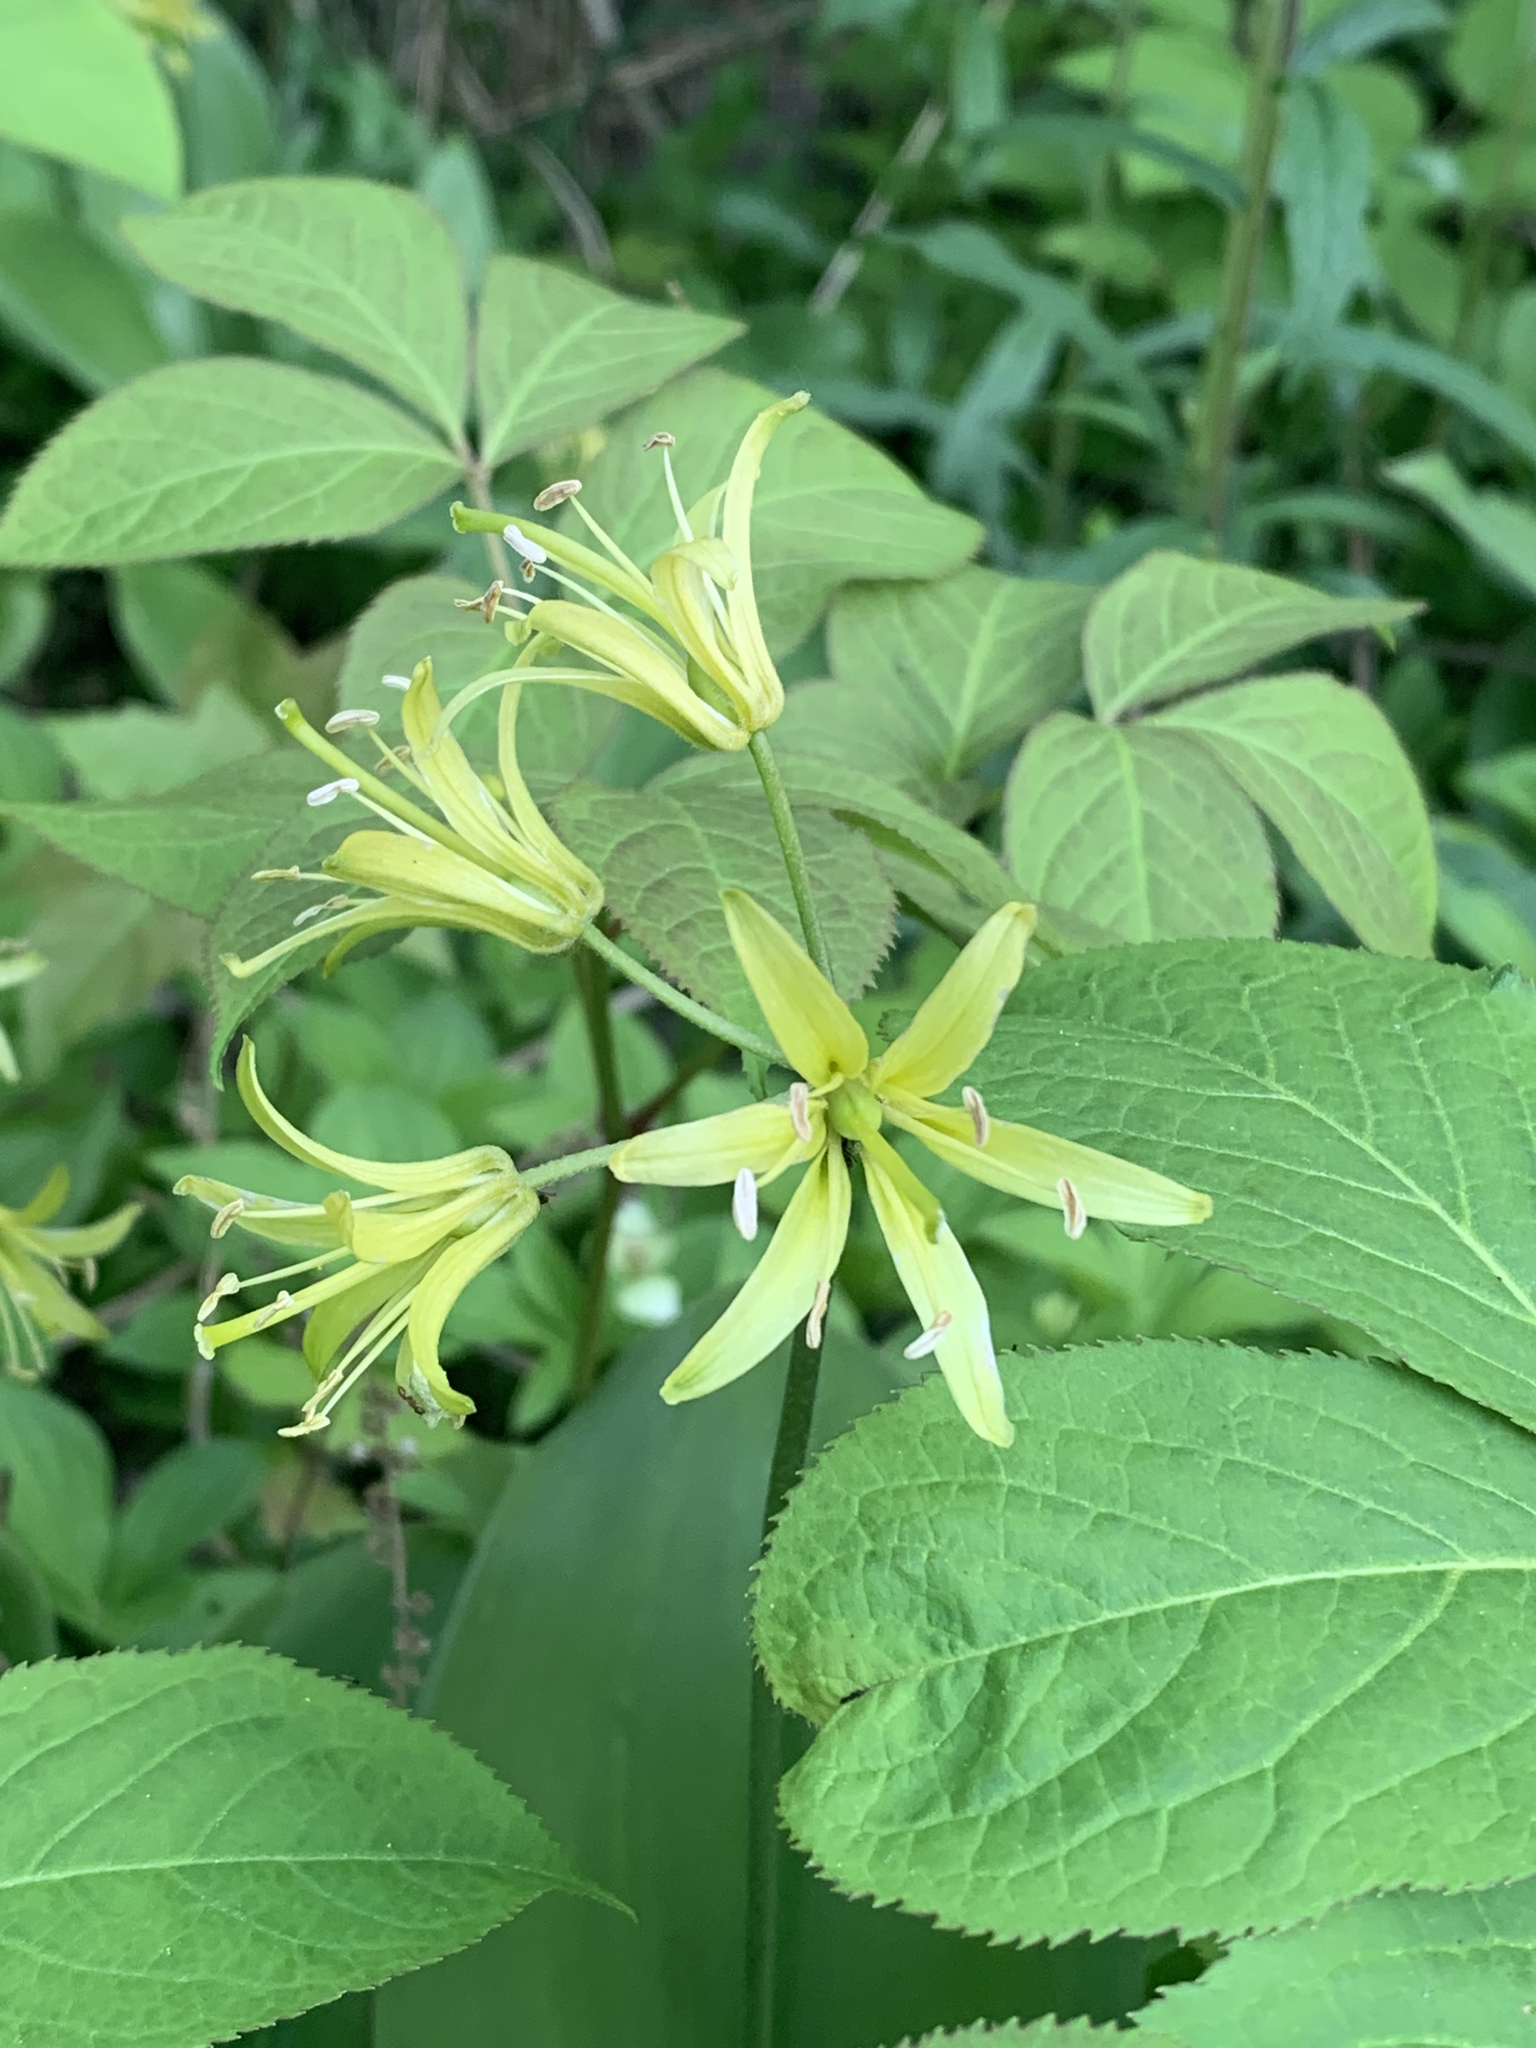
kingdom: Plantae
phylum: Tracheophyta
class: Liliopsida
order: Liliales
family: Liliaceae
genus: Clintonia
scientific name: Clintonia borealis
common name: Yellow clintonia
